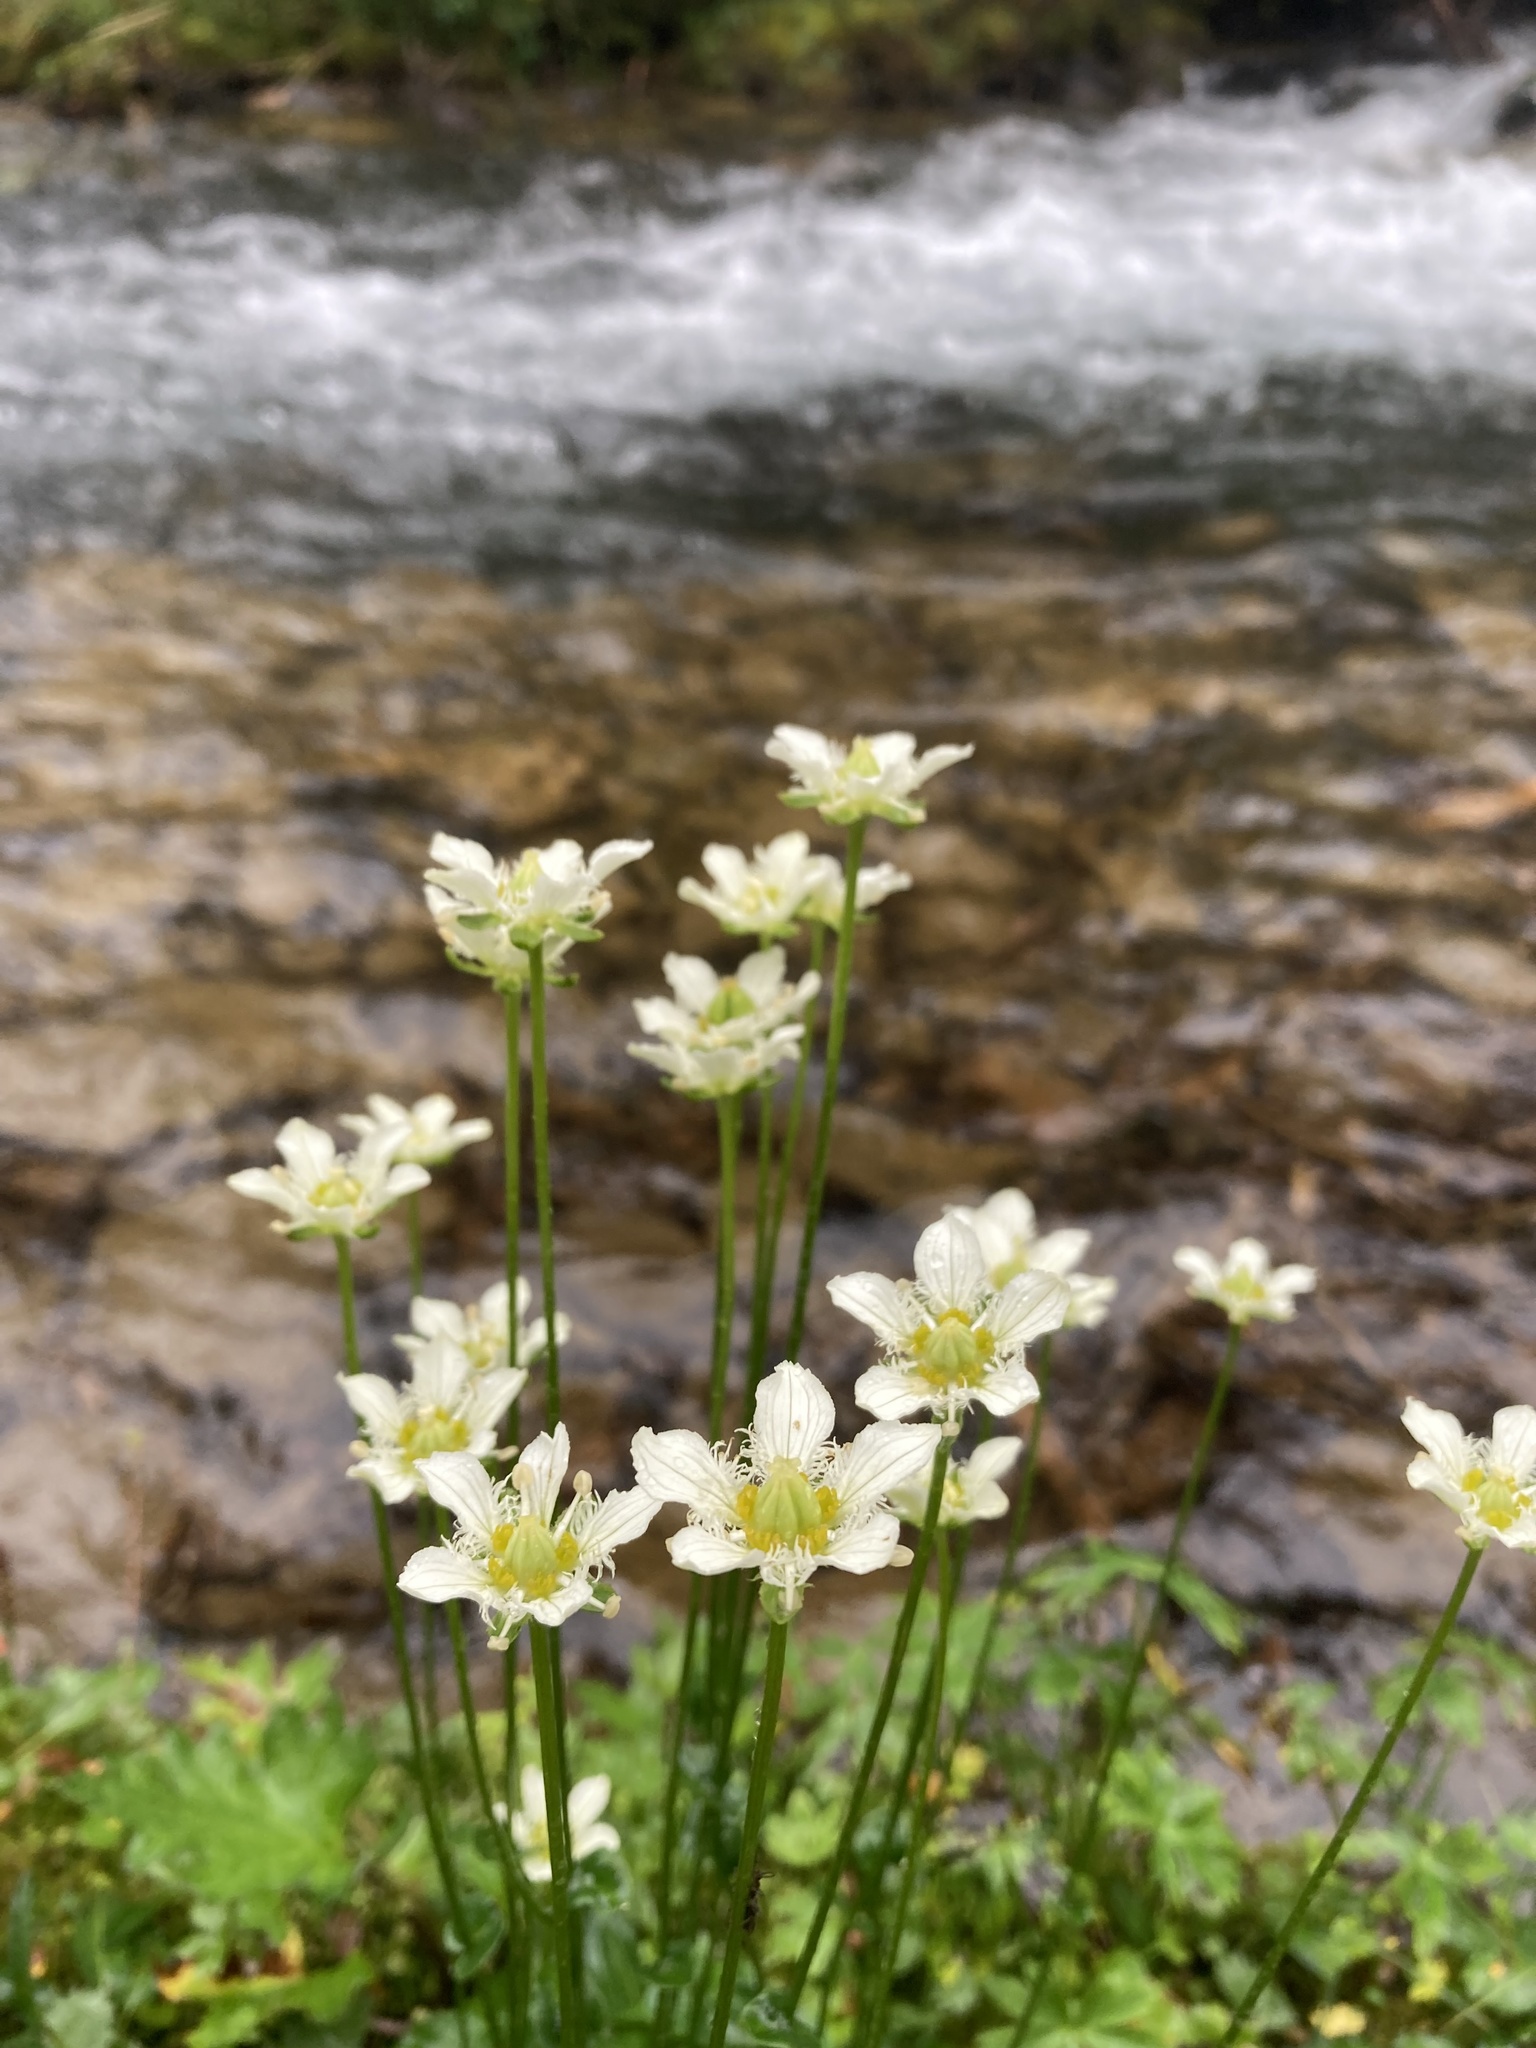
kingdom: Plantae
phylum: Tracheophyta
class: Magnoliopsida
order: Celastrales
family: Parnassiaceae
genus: Parnassia
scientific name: Parnassia fimbriata
